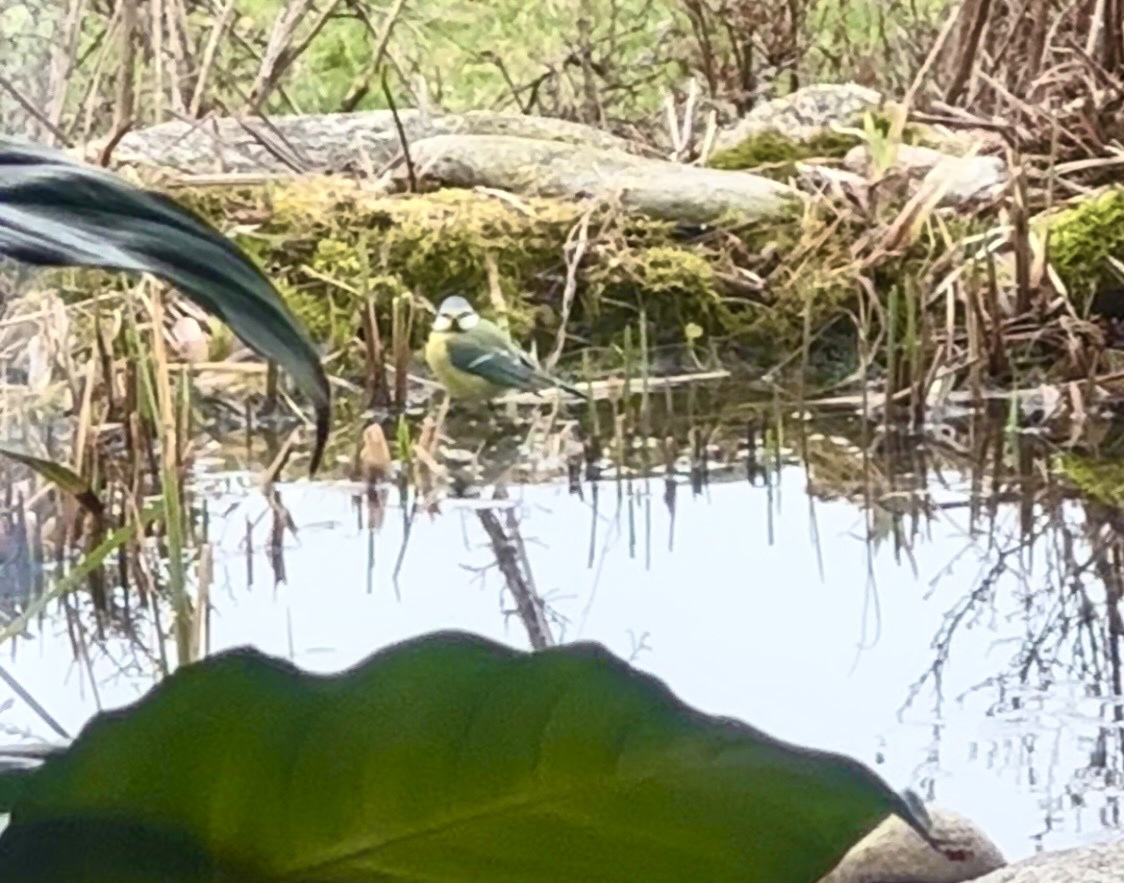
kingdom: Animalia
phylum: Chordata
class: Aves
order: Passeriformes
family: Paridae
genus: Cyanistes
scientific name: Cyanistes caeruleus
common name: Eurasian blue tit
